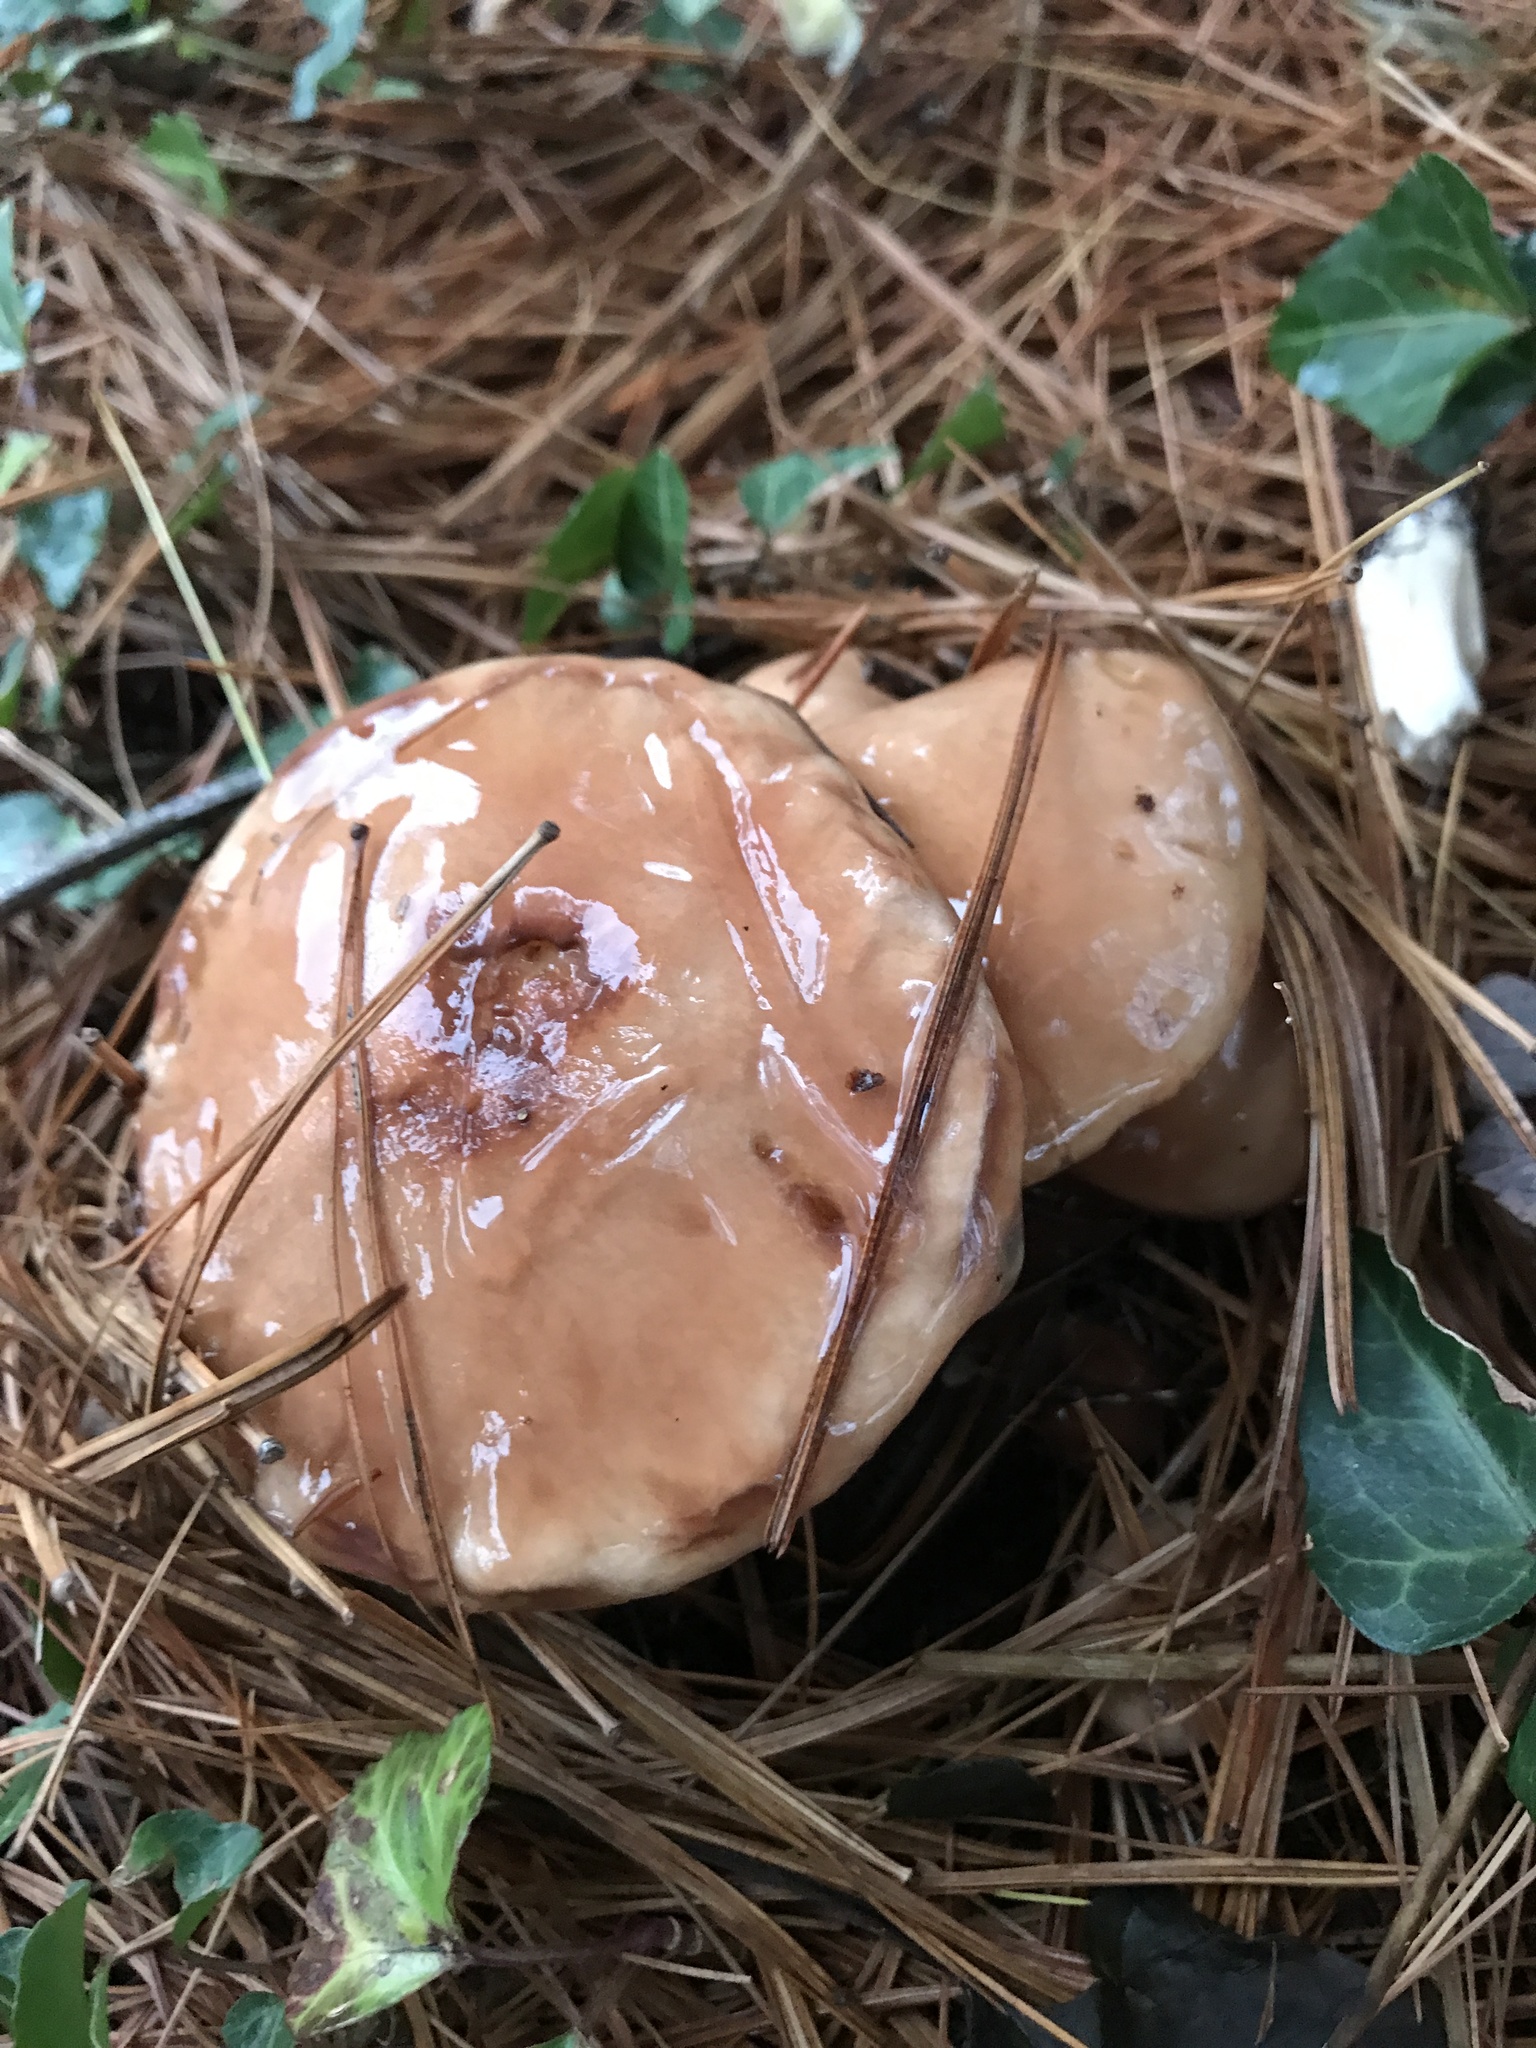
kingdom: Fungi
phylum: Basidiomycota
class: Agaricomycetes
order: Boletales
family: Suillaceae
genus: Suillus
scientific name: Suillus brevipes
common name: Short-stalked suillus
